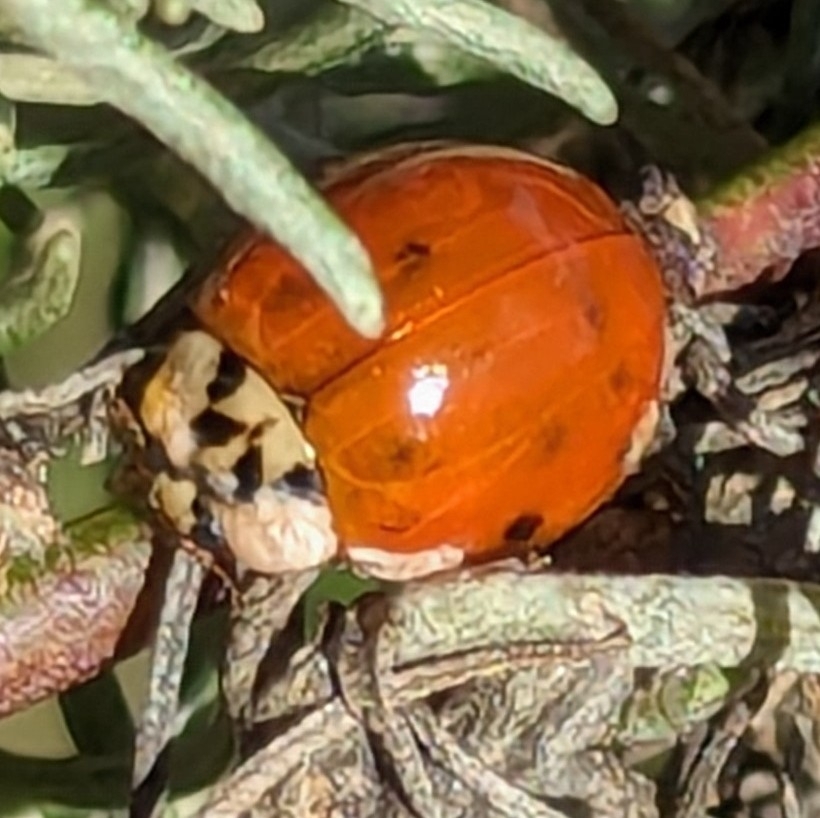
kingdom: Animalia
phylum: Arthropoda
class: Insecta
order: Coleoptera
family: Coccinellidae
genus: Harmonia
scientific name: Harmonia axyridis
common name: Harlequin ladybird
